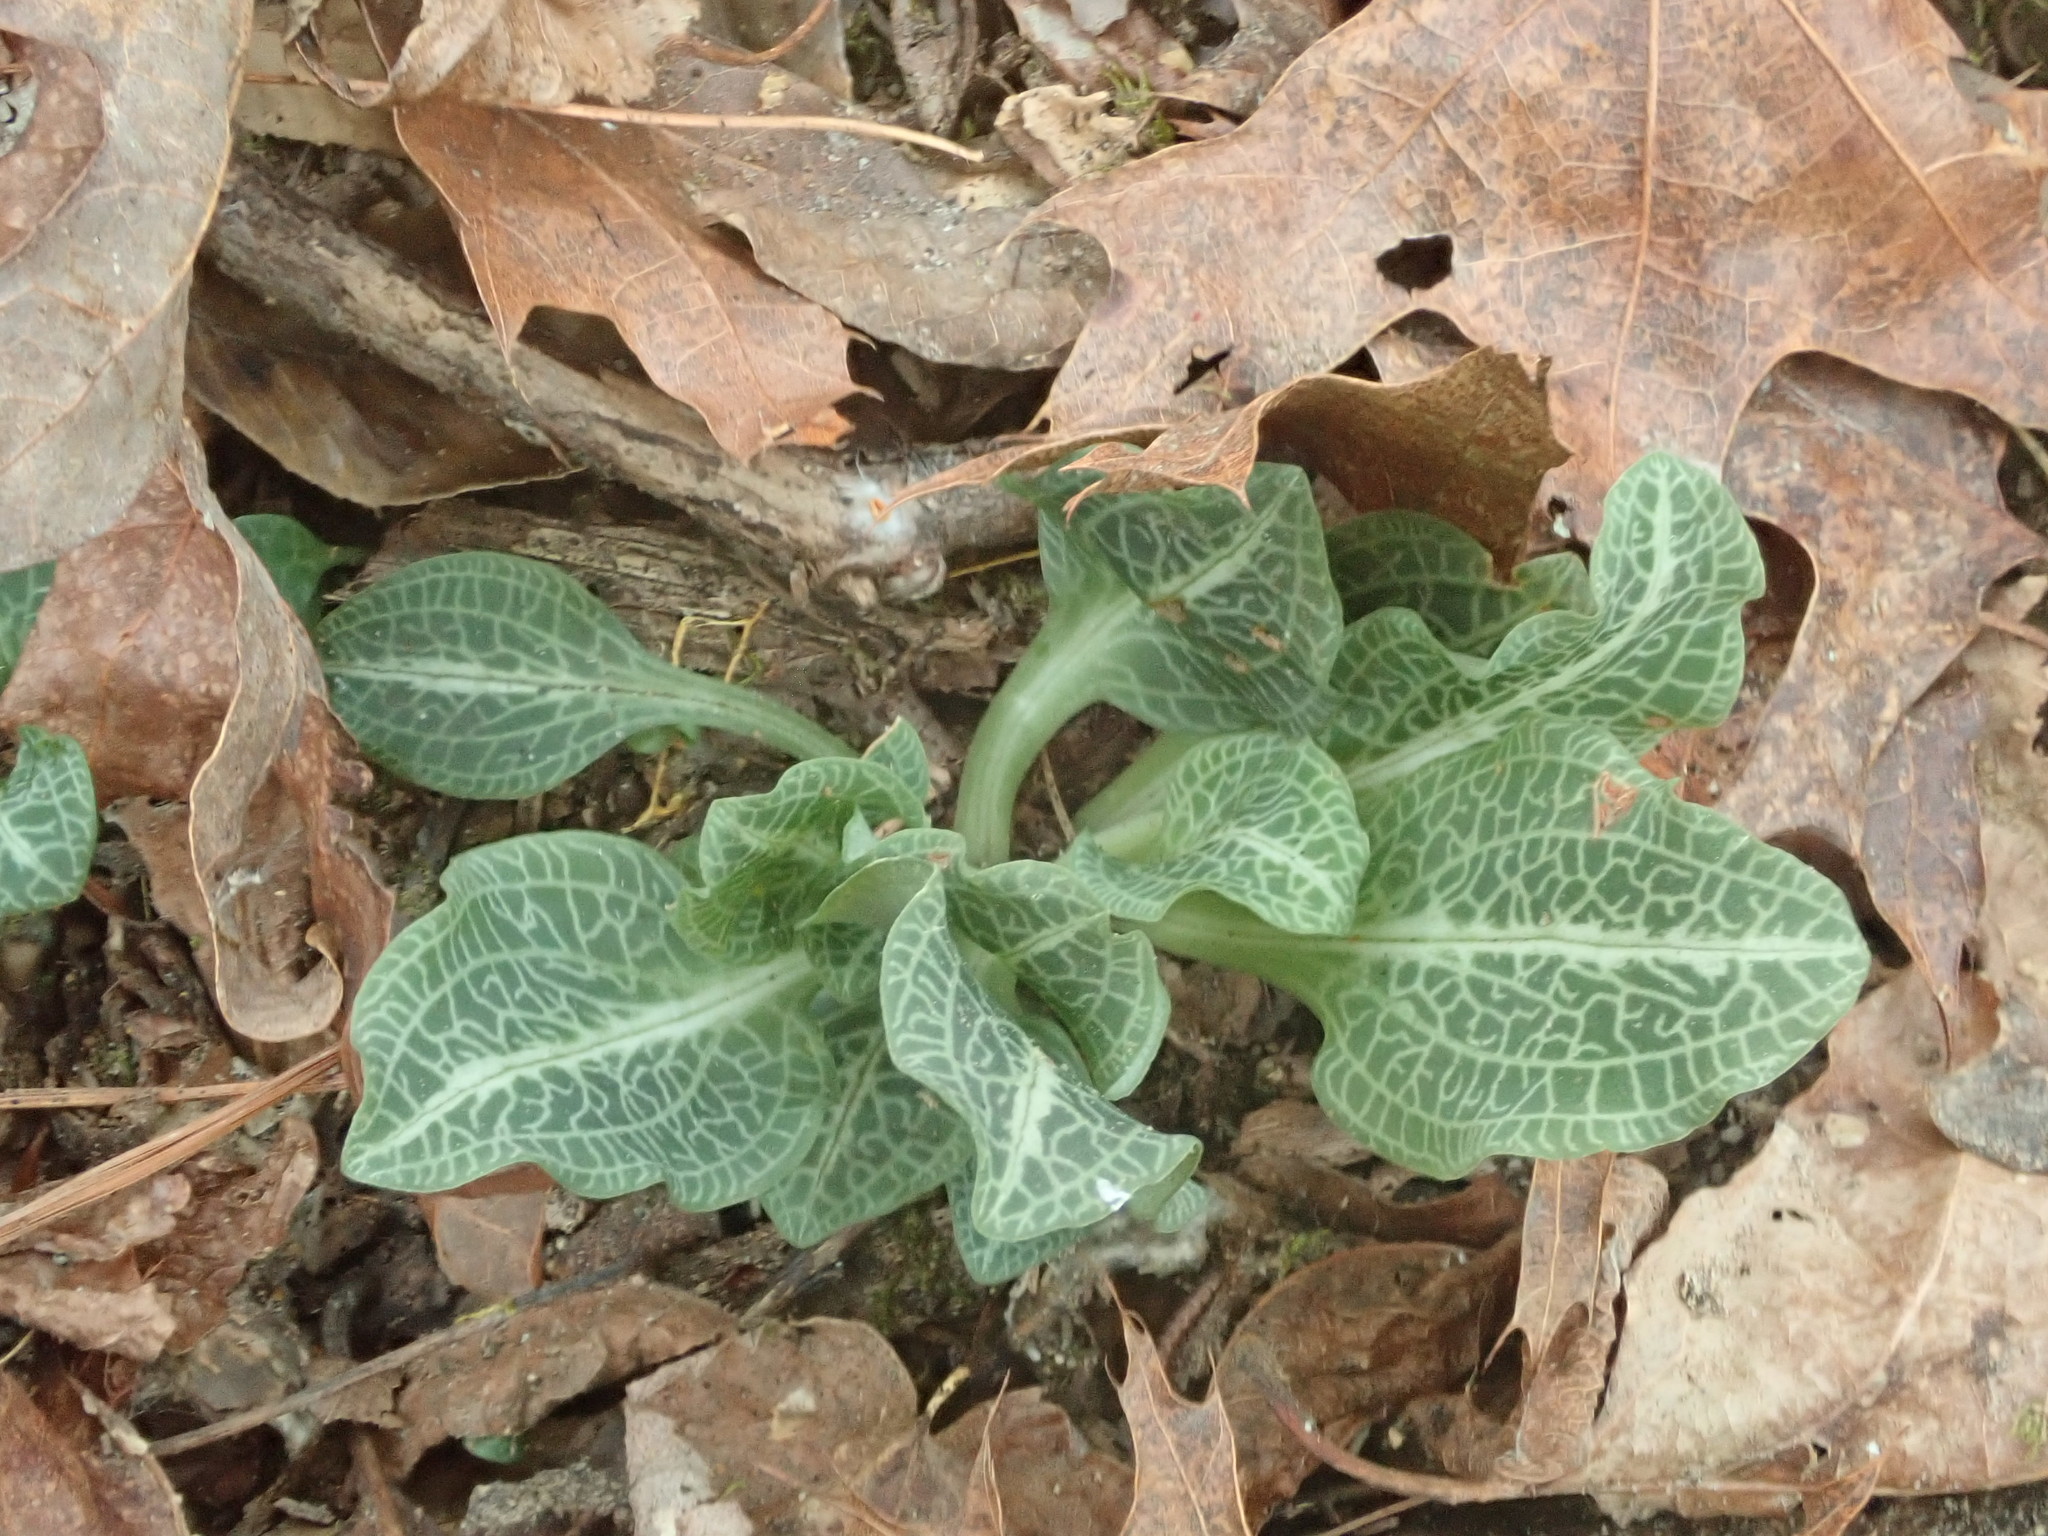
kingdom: Plantae
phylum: Tracheophyta
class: Liliopsida
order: Asparagales
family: Orchidaceae
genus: Goodyera
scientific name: Goodyera pubescens
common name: Downy rattlesnake-plantain
